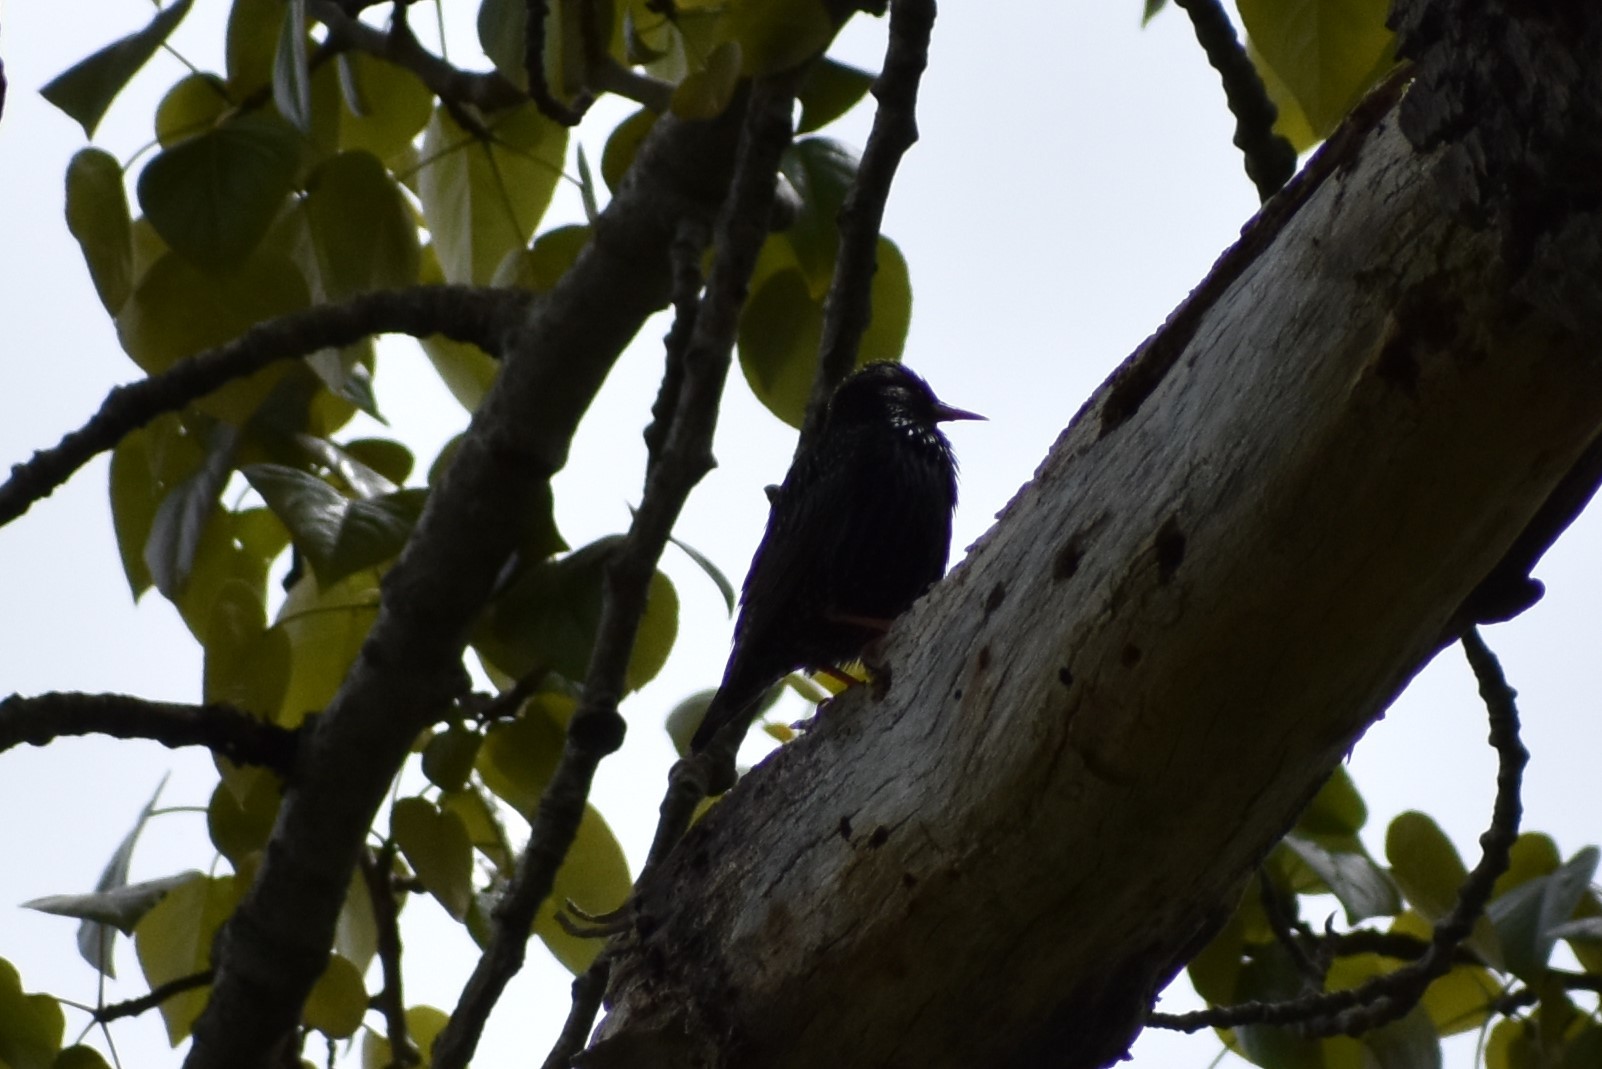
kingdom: Animalia
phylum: Chordata
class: Aves
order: Passeriformes
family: Sturnidae
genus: Sturnus
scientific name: Sturnus vulgaris
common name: Common starling
